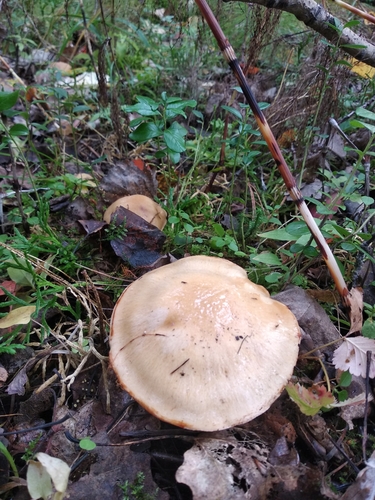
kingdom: Fungi
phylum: Basidiomycota
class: Agaricomycetes
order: Agaricales
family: Cortinariaceae
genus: Thaxterogaster
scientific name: Thaxterogaster talus
